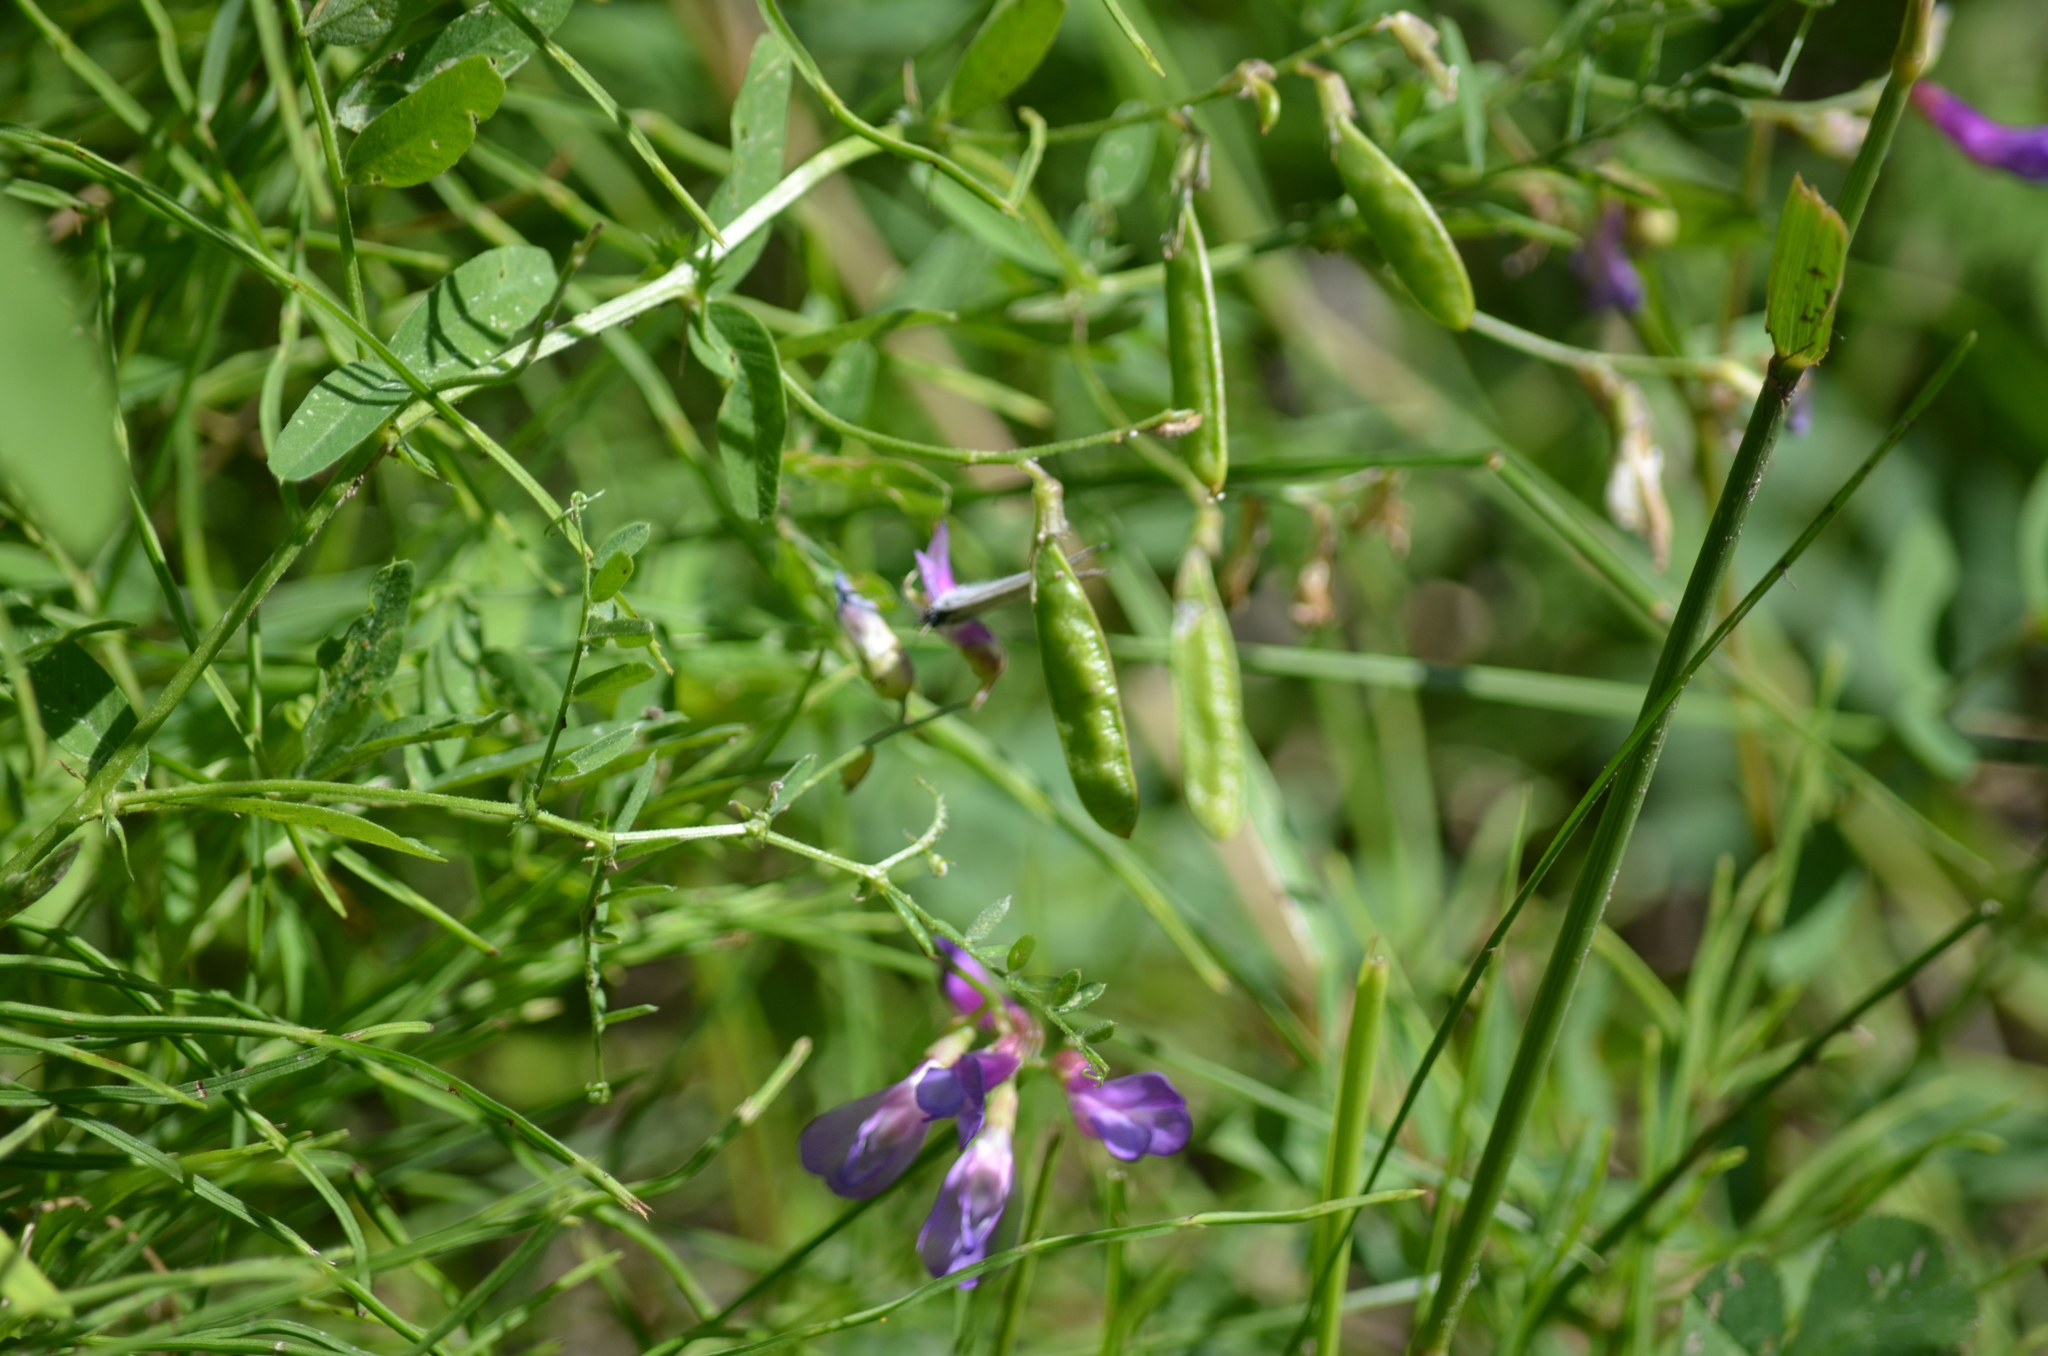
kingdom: Plantae
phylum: Tracheophyta
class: Magnoliopsida
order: Fabales
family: Fabaceae
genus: Vicia
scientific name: Vicia americana
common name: American vetch
